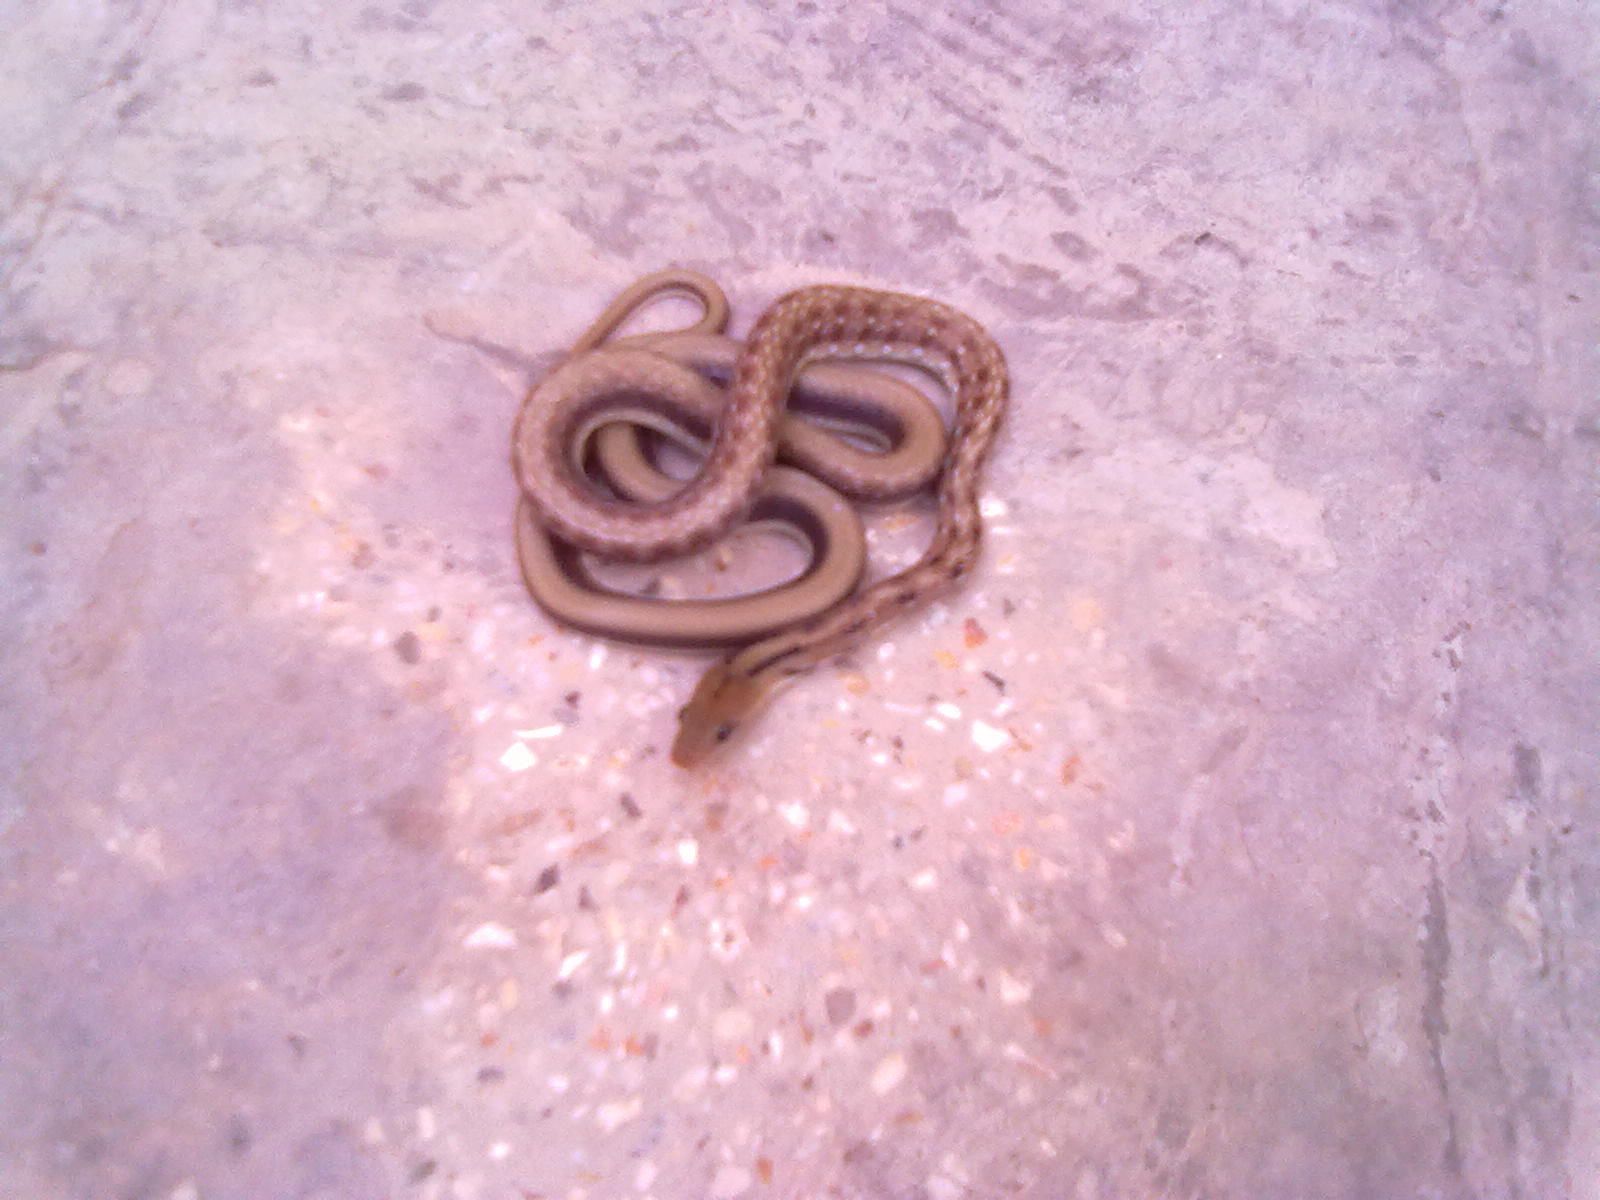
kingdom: Animalia
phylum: Chordata
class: Squamata
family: Colubridae
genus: Coelognathus
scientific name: Coelognathus helena
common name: Trinket snake
